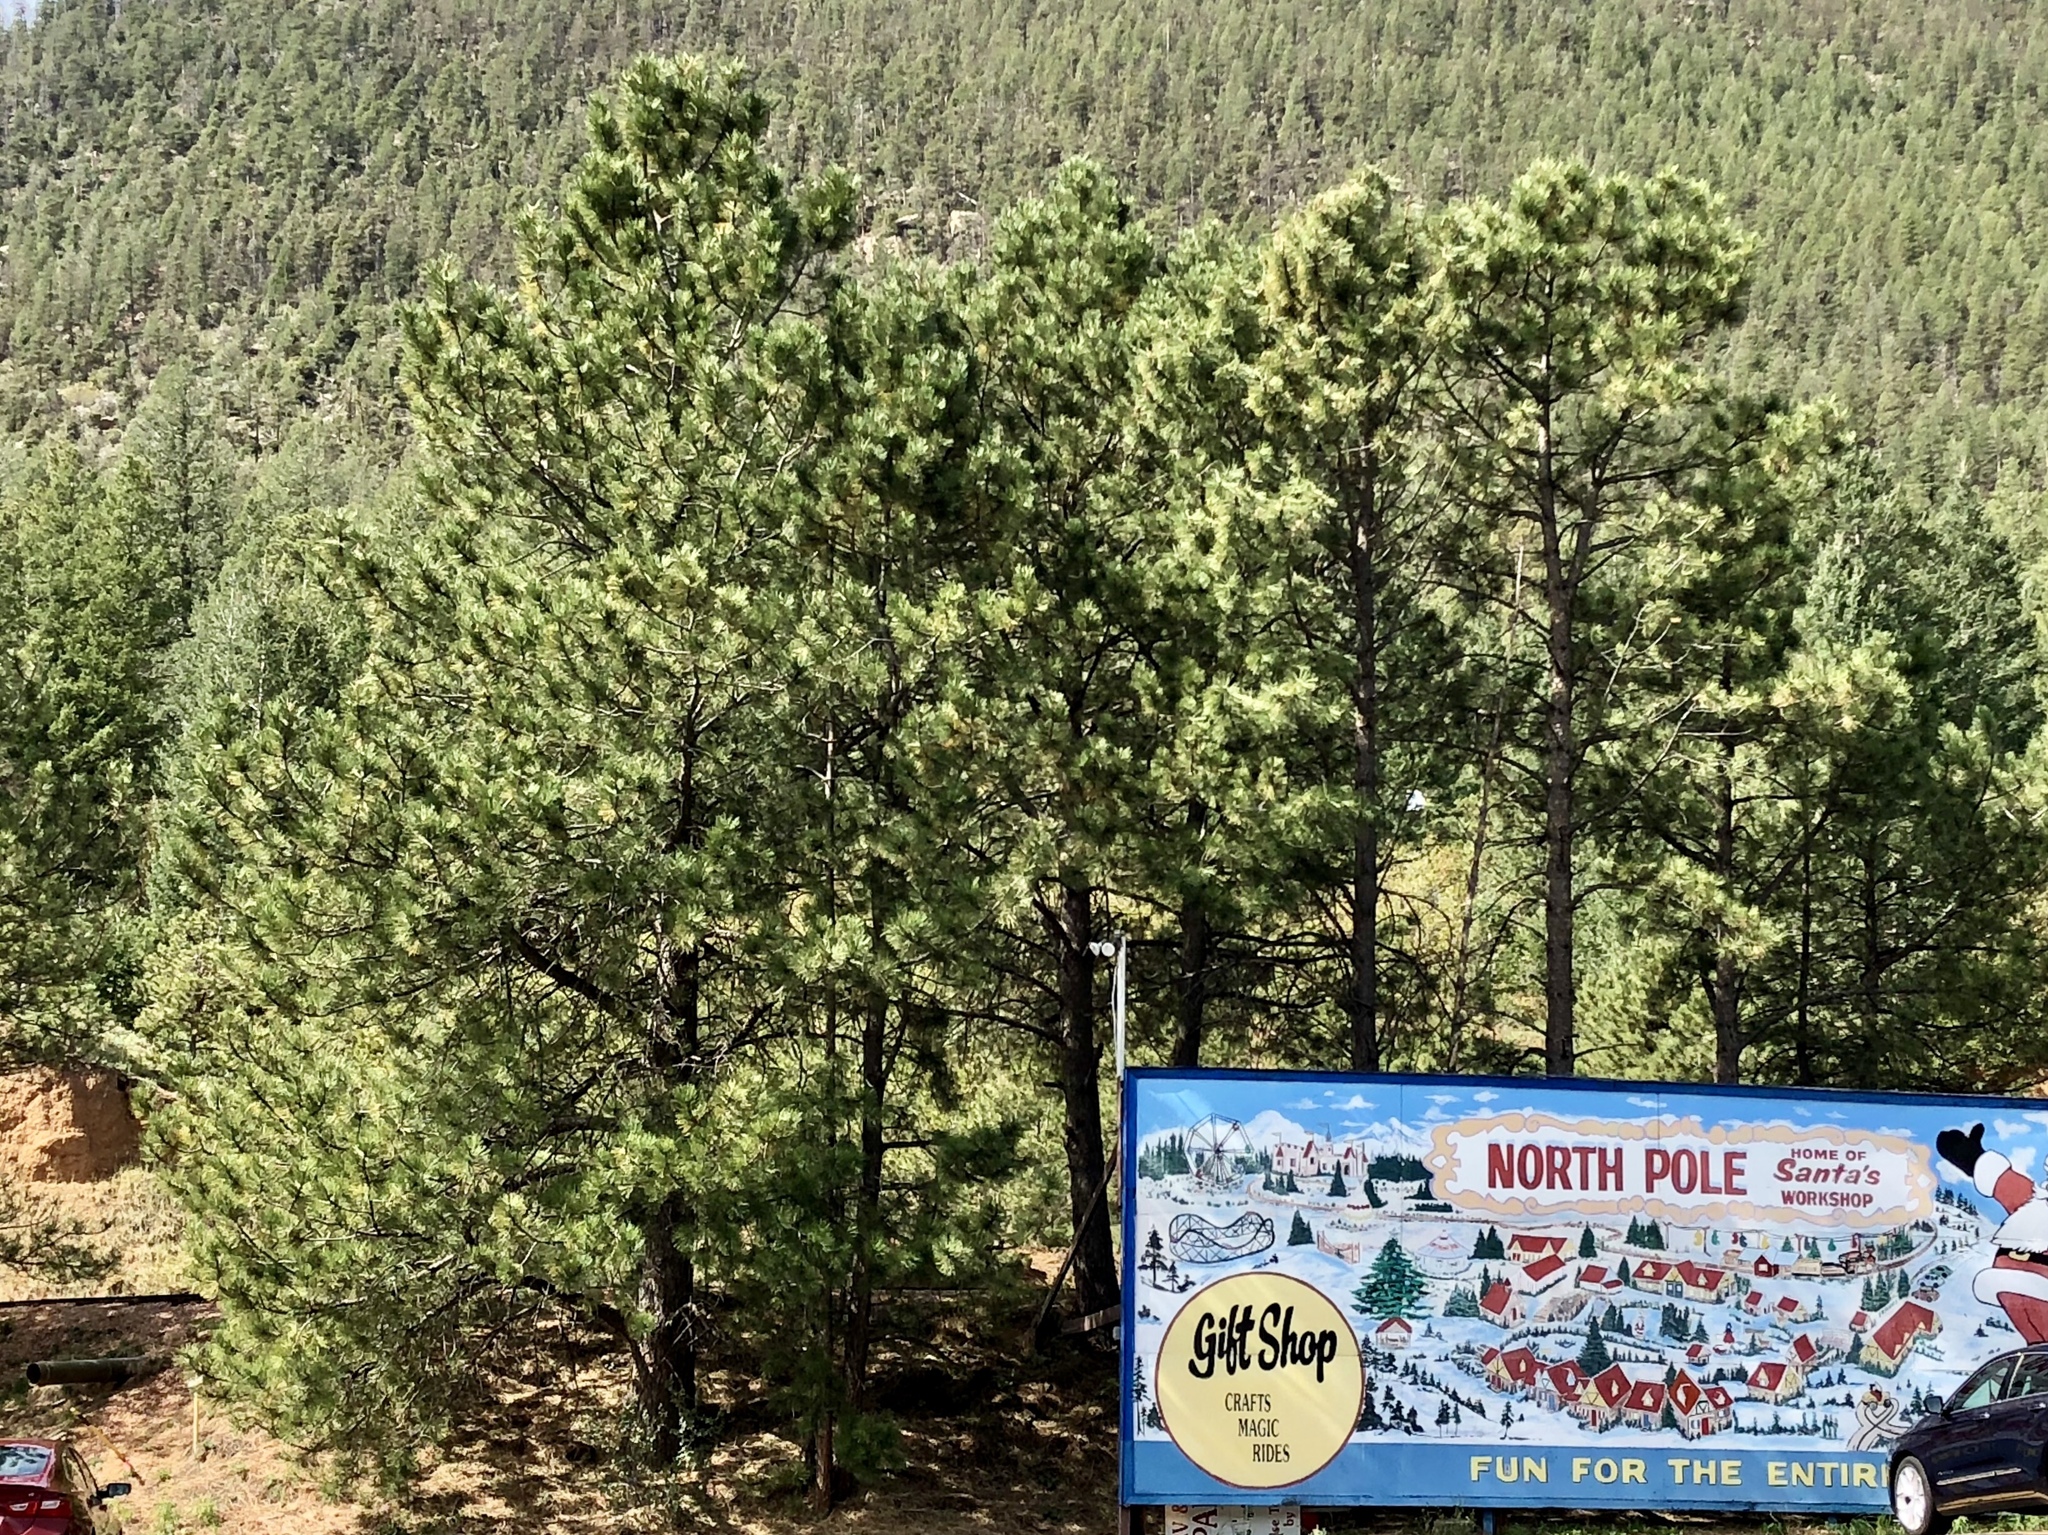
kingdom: Plantae
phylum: Tracheophyta
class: Pinopsida
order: Pinales
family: Pinaceae
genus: Pinus
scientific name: Pinus ponderosa
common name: Western yellow-pine
